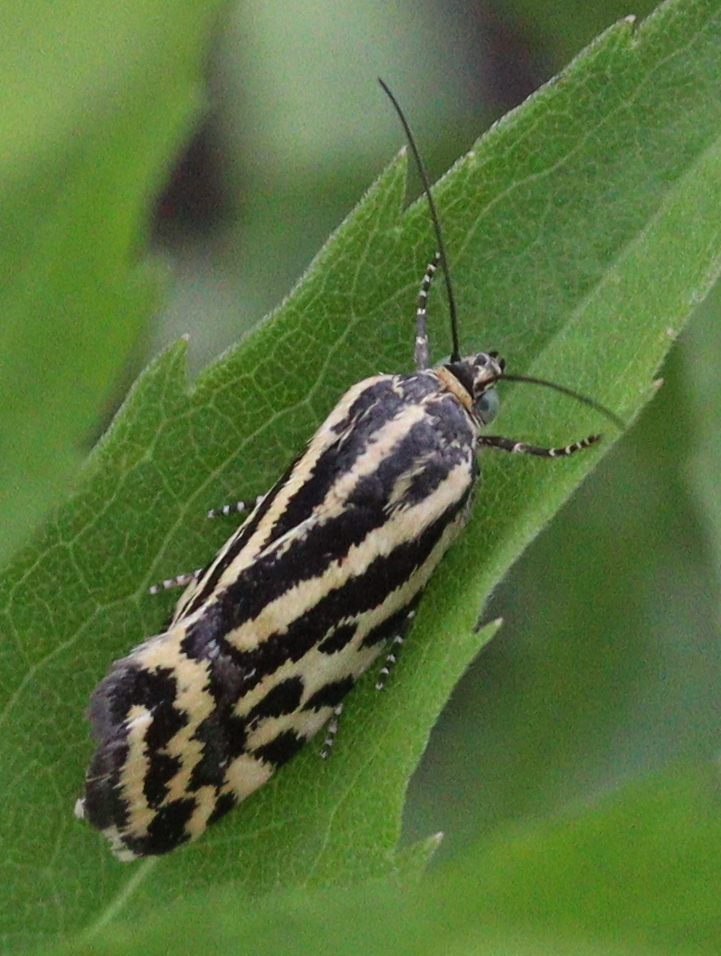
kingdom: Animalia
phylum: Arthropoda
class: Insecta
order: Lepidoptera
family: Noctuidae
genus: Acontia
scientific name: Acontia trabealis
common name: Spotted sulphur
